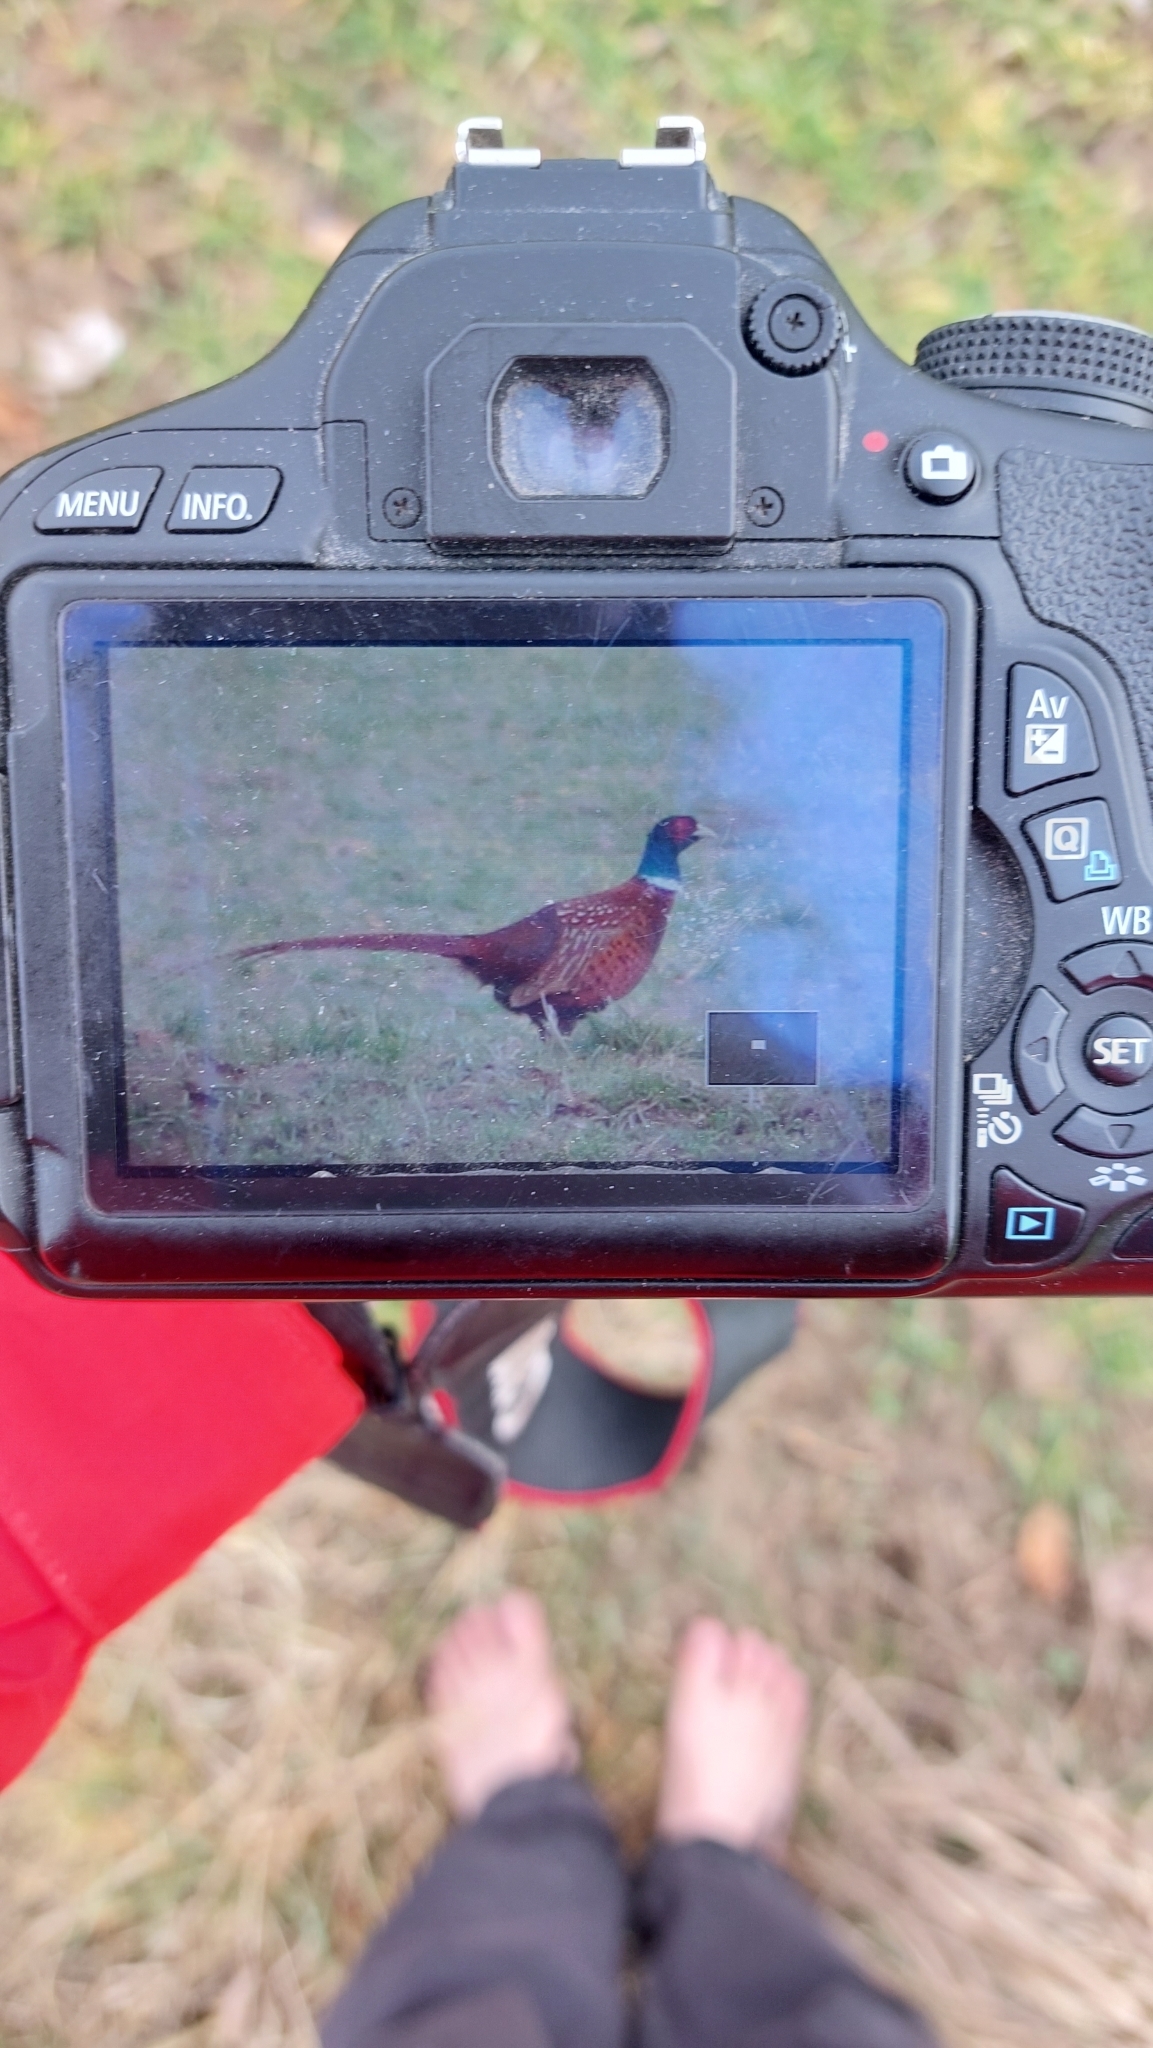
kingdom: Animalia
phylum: Chordata
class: Aves
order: Galliformes
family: Phasianidae
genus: Phasianus
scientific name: Phasianus colchicus
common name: Common pheasant
